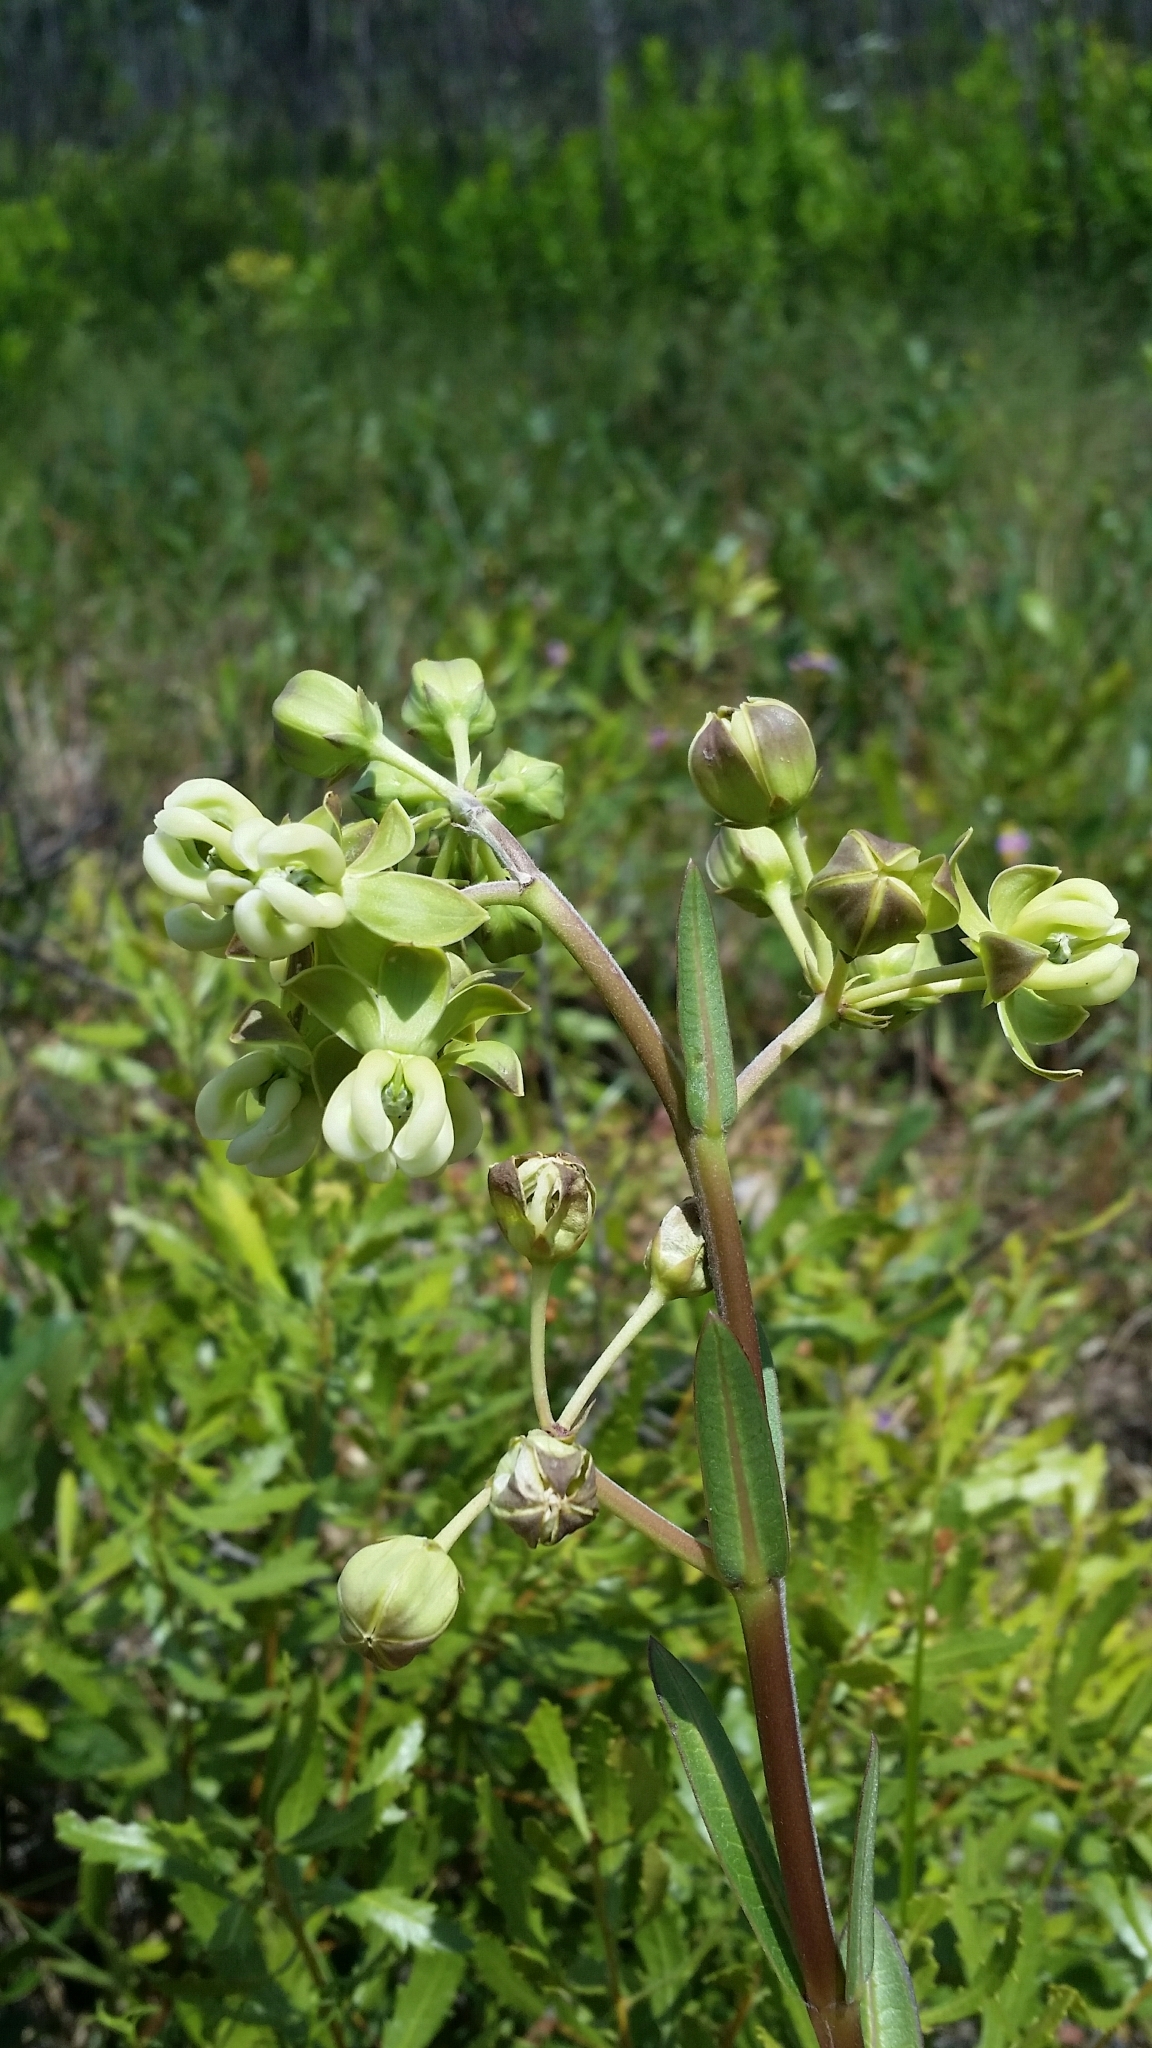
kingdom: Plantae
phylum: Tracheophyta
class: Magnoliopsida
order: Gentianales
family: Apocynaceae
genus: Asclepias
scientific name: Asclepias connivens
